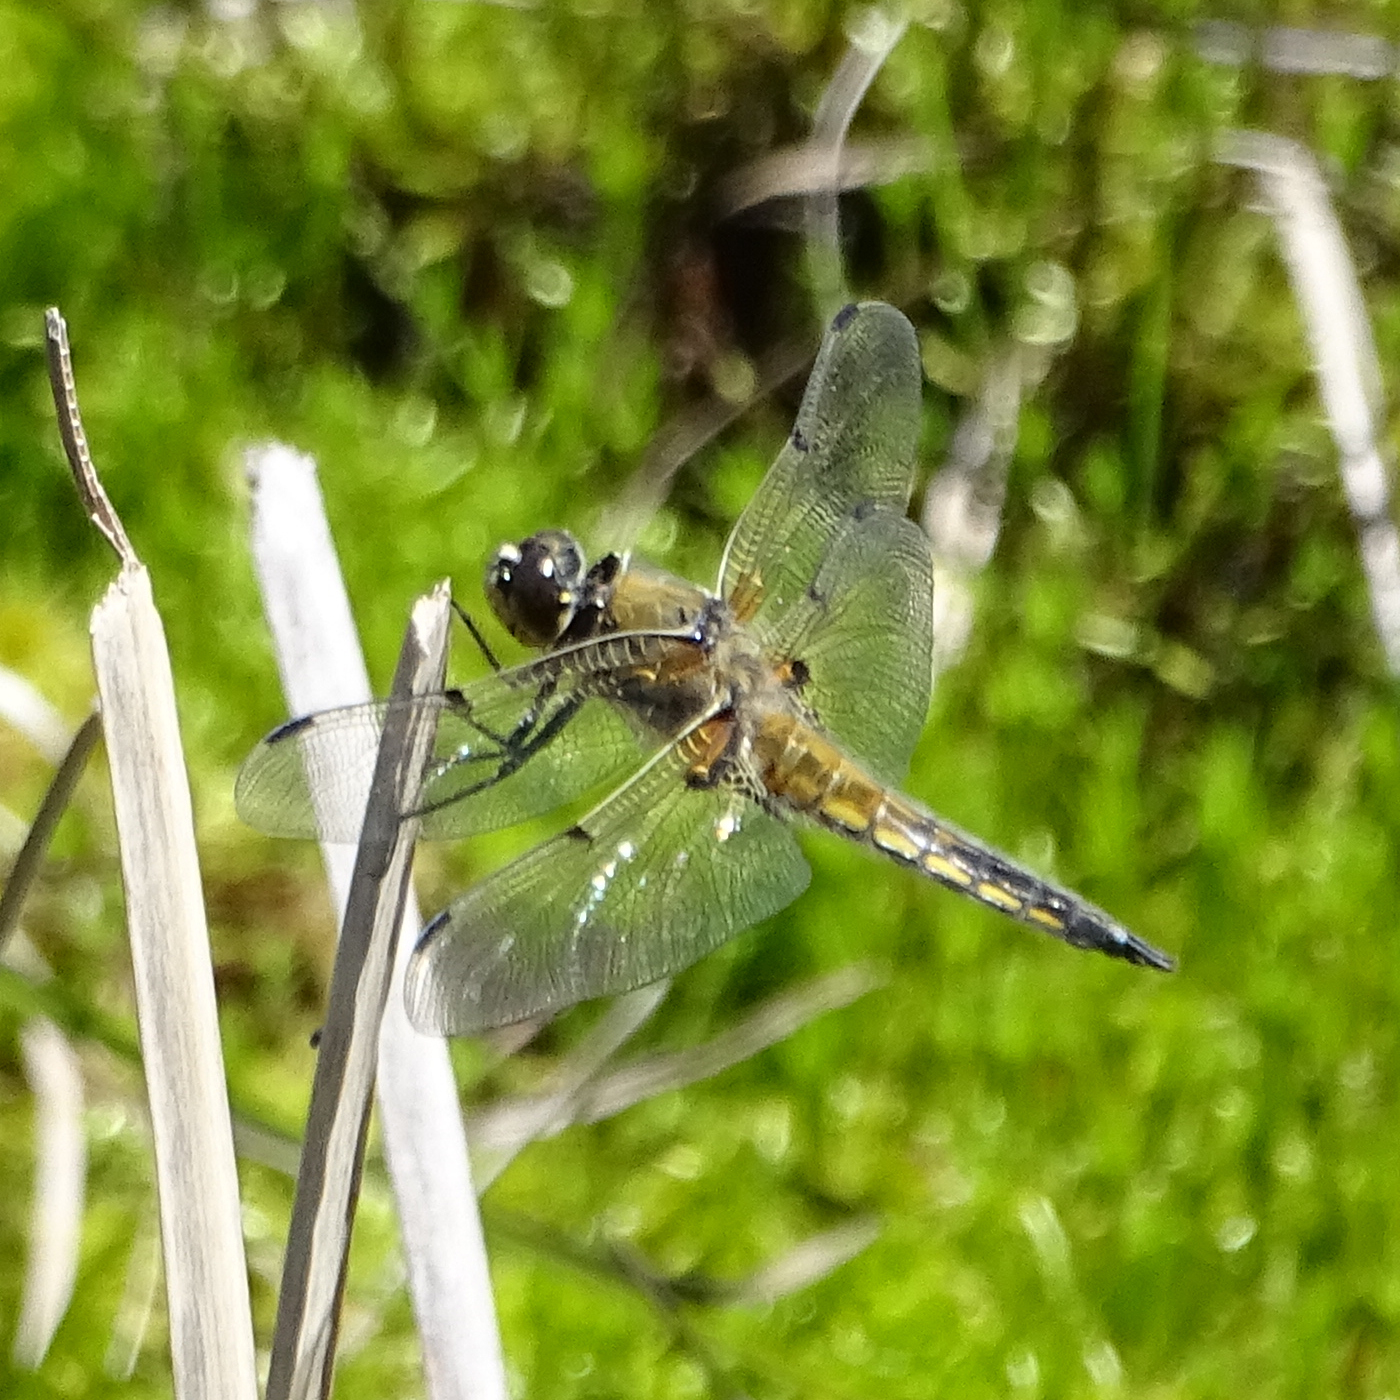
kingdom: Animalia
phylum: Arthropoda
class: Insecta
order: Odonata
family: Libellulidae
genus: Libellula
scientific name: Libellula quadrimaculata
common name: Four-spotted chaser
